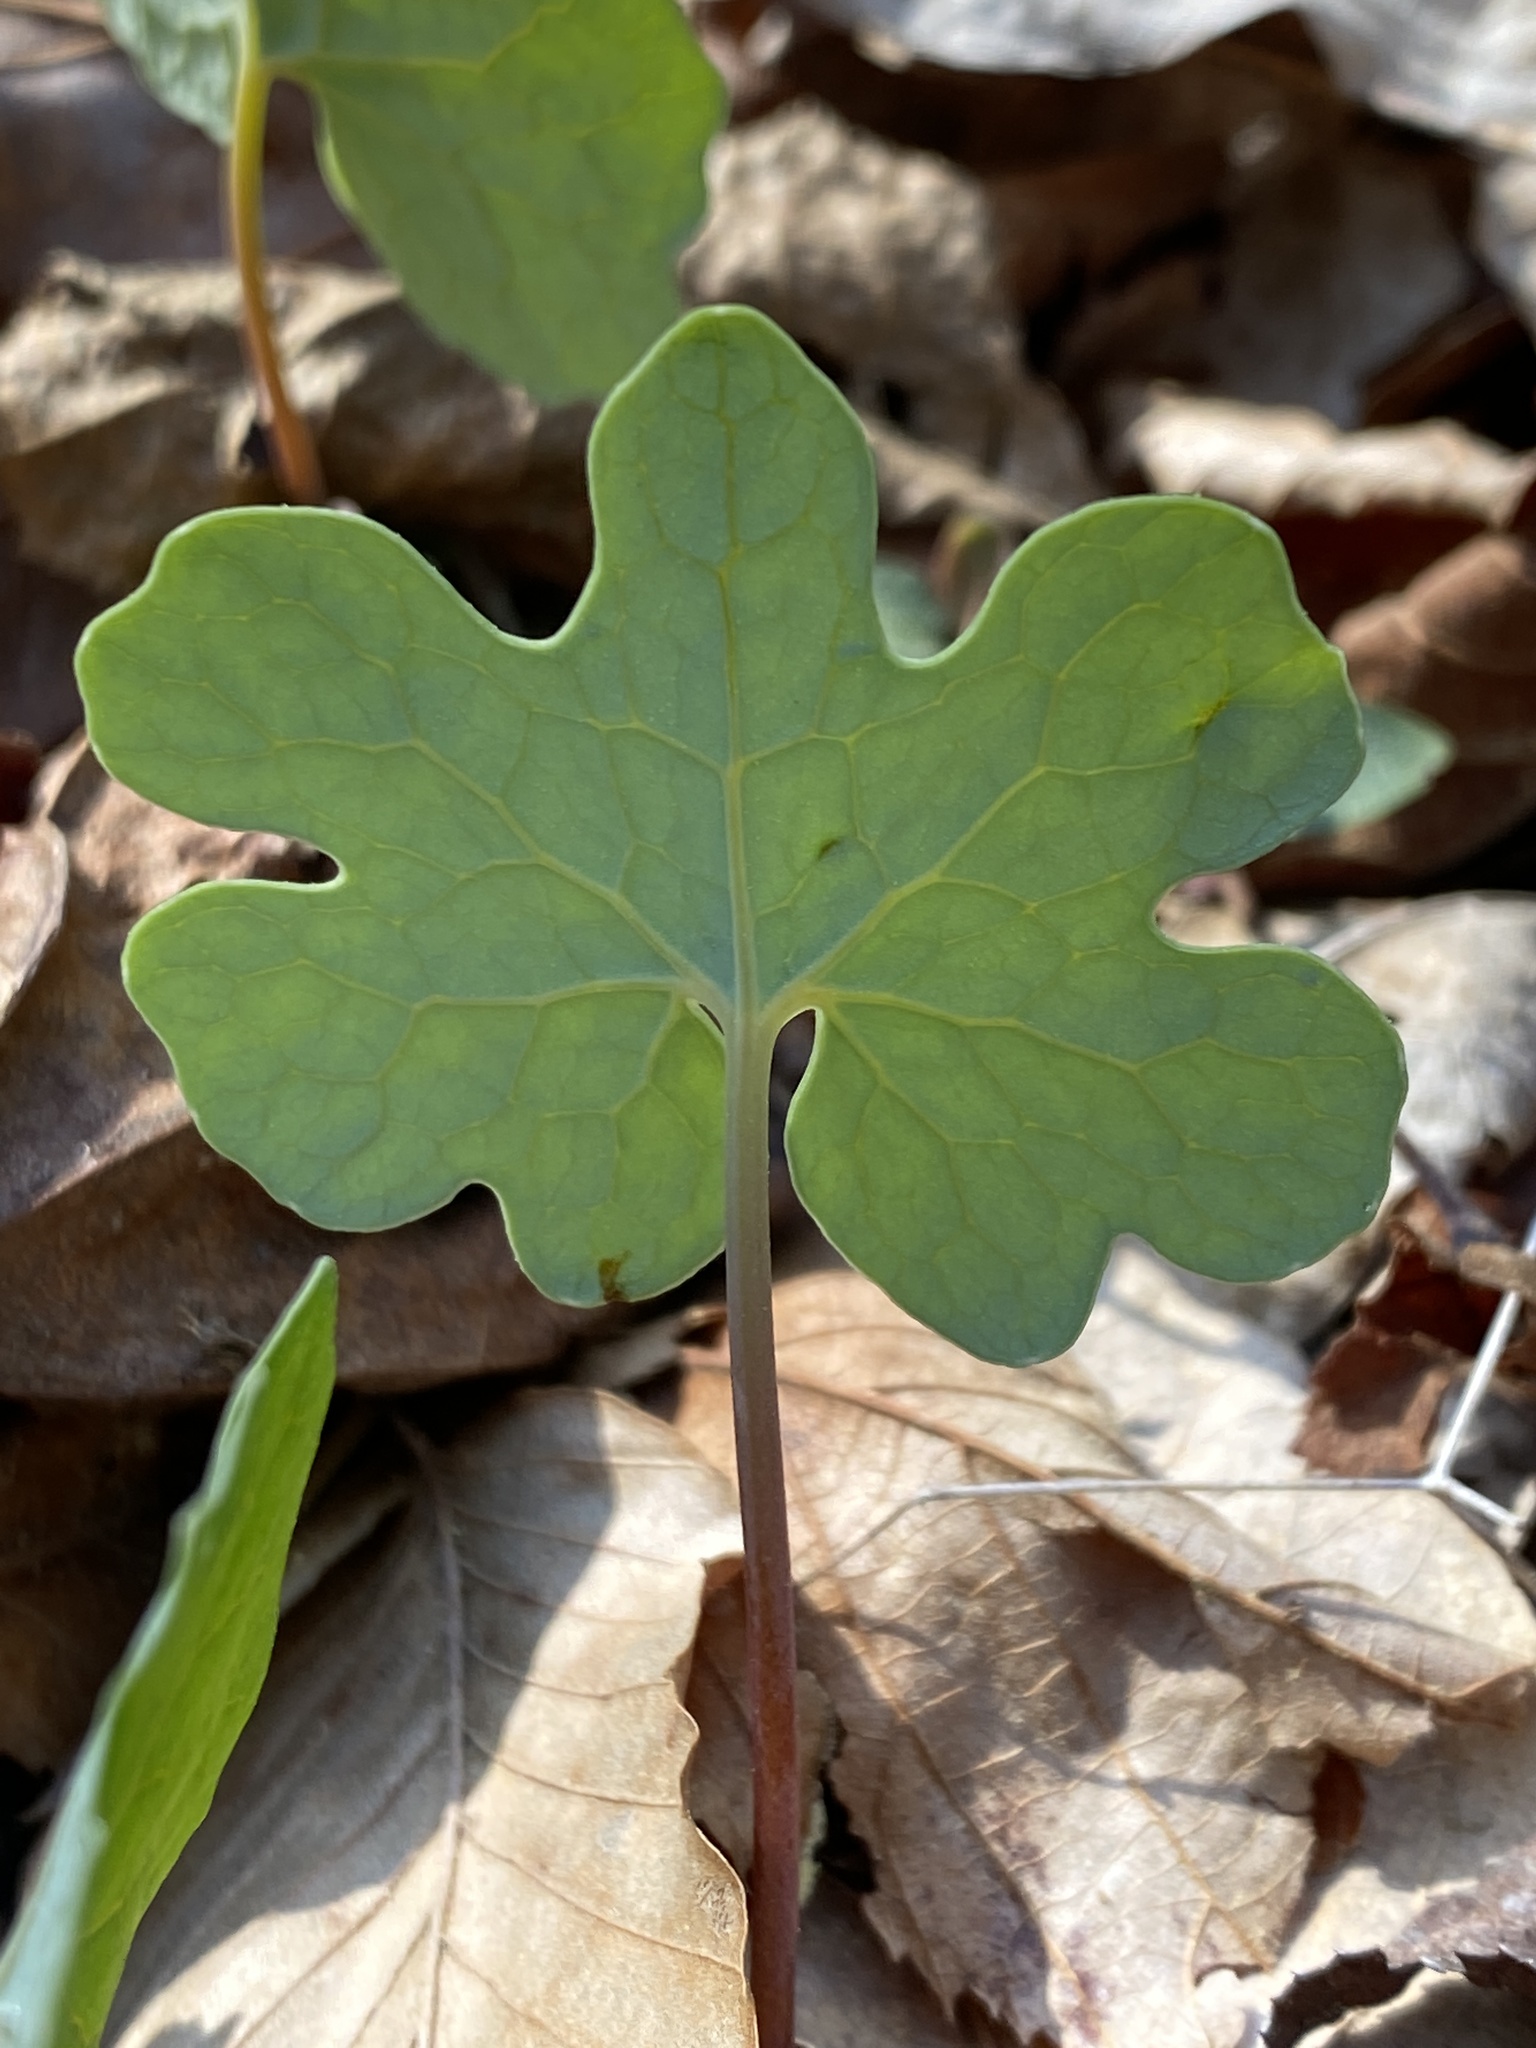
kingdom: Plantae
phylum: Tracheophyta
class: Magnoliopsida
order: Ranunculales
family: Papaveraceae
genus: Sanguinaria
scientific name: Sanguinaria canadensis
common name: Bloodroot
